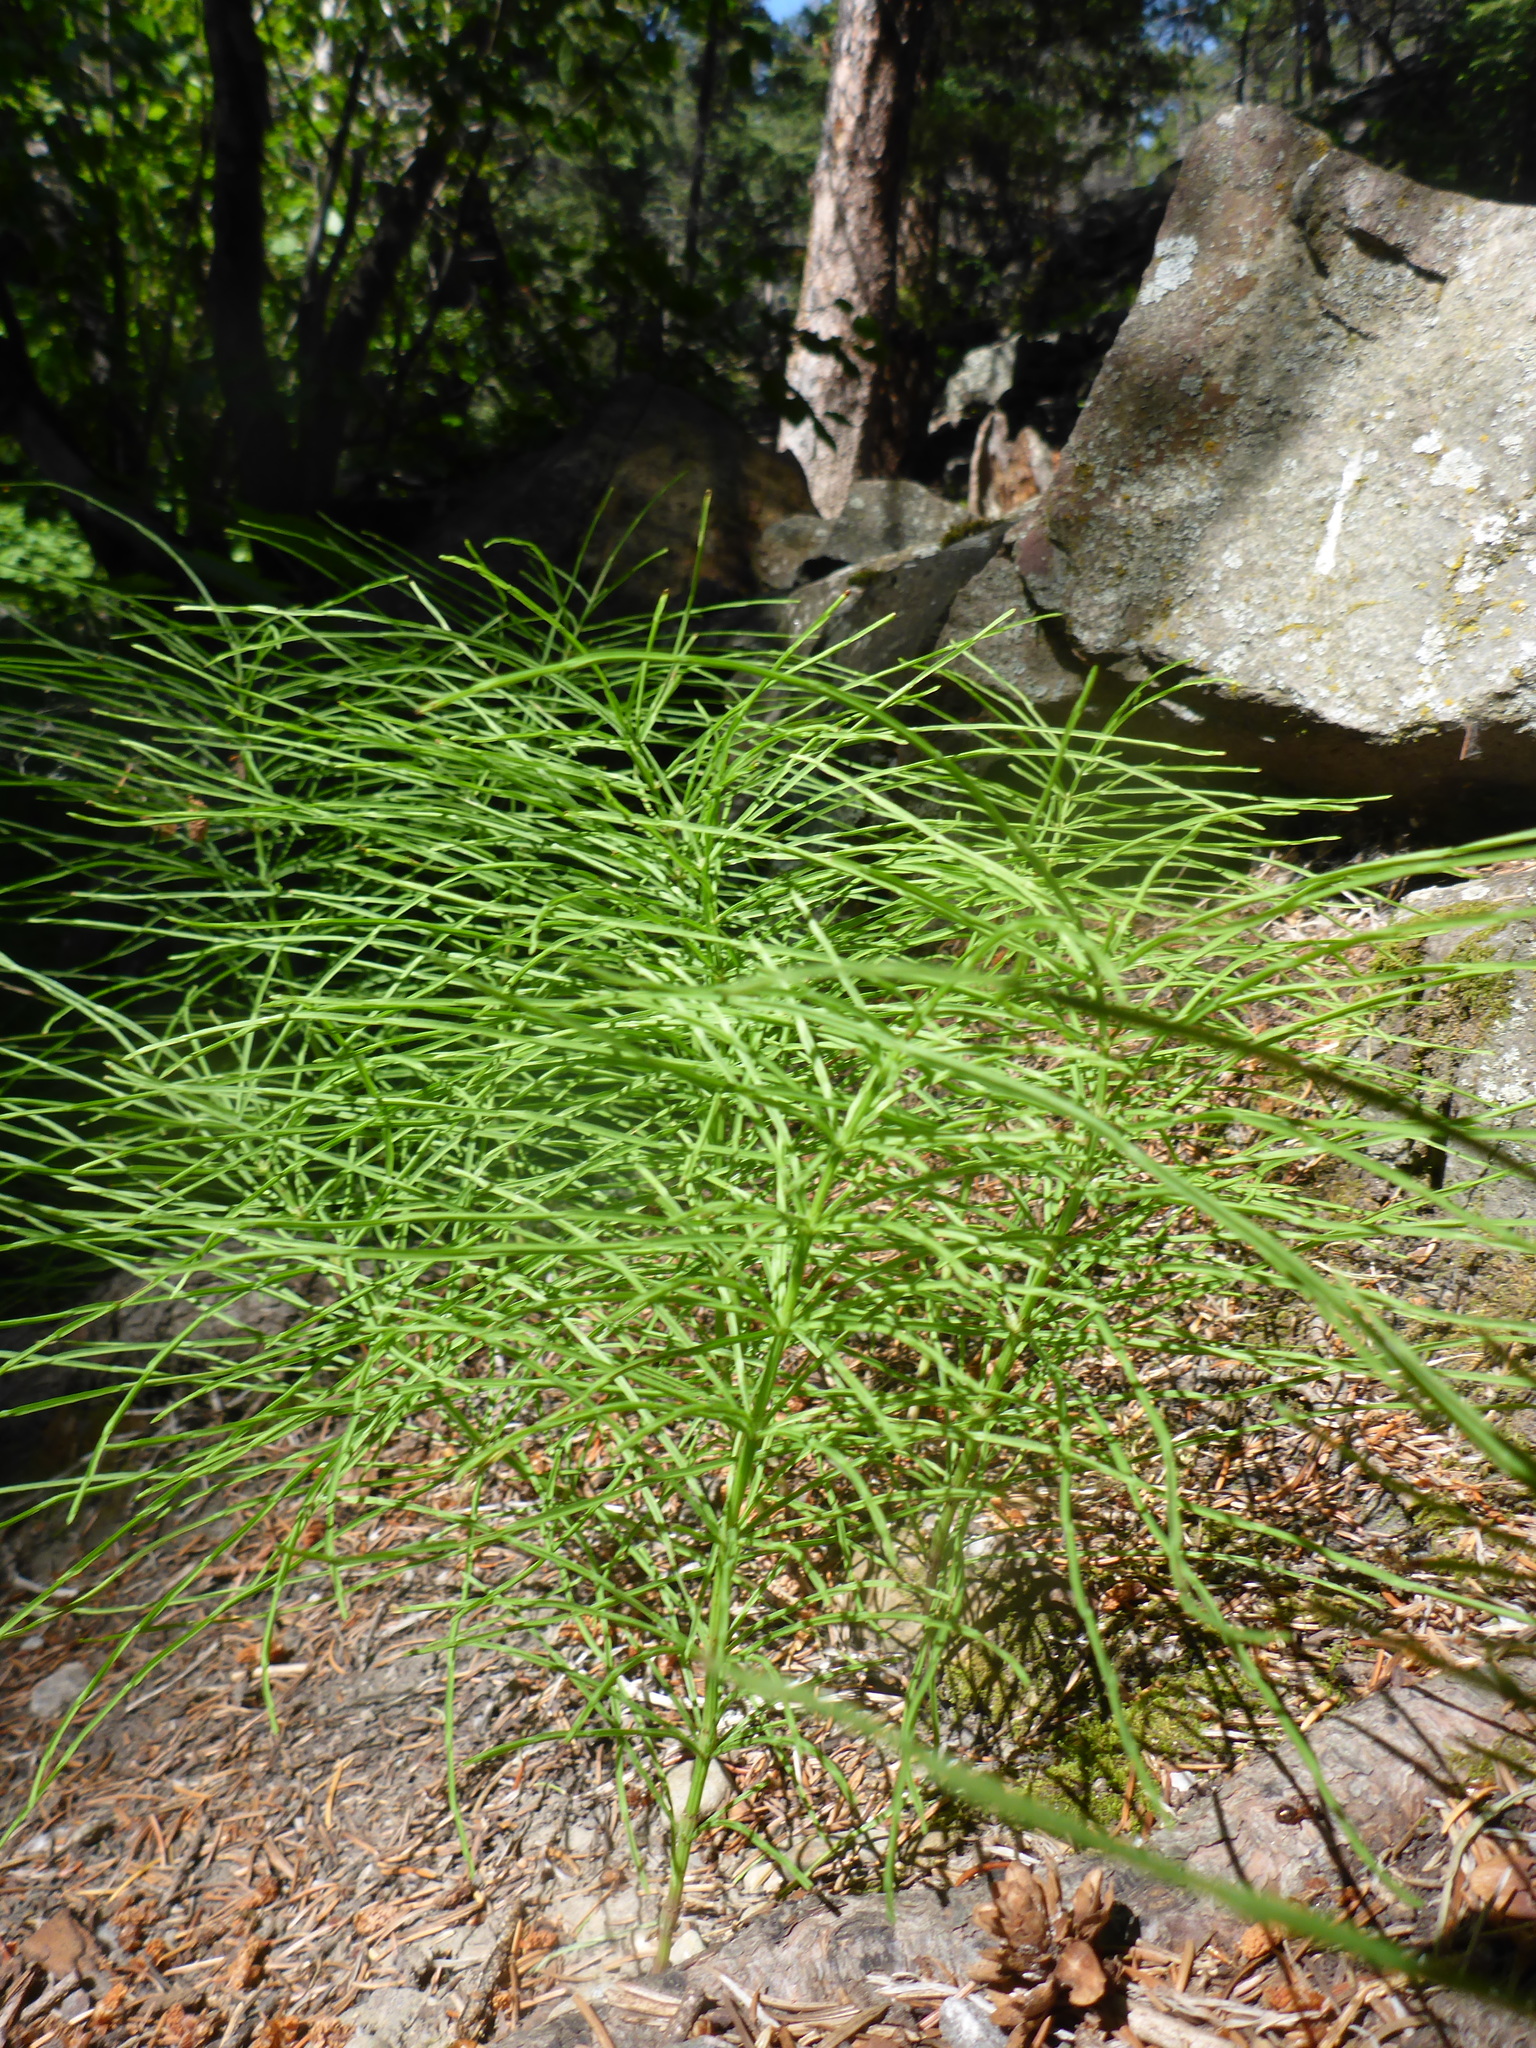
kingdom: Plantae
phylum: Tracheophyta
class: Polypodiopsida
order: Equisetales
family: Equisetaceae
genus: Equisetum
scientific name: Equisetum pratense
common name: Meadow horsetail
